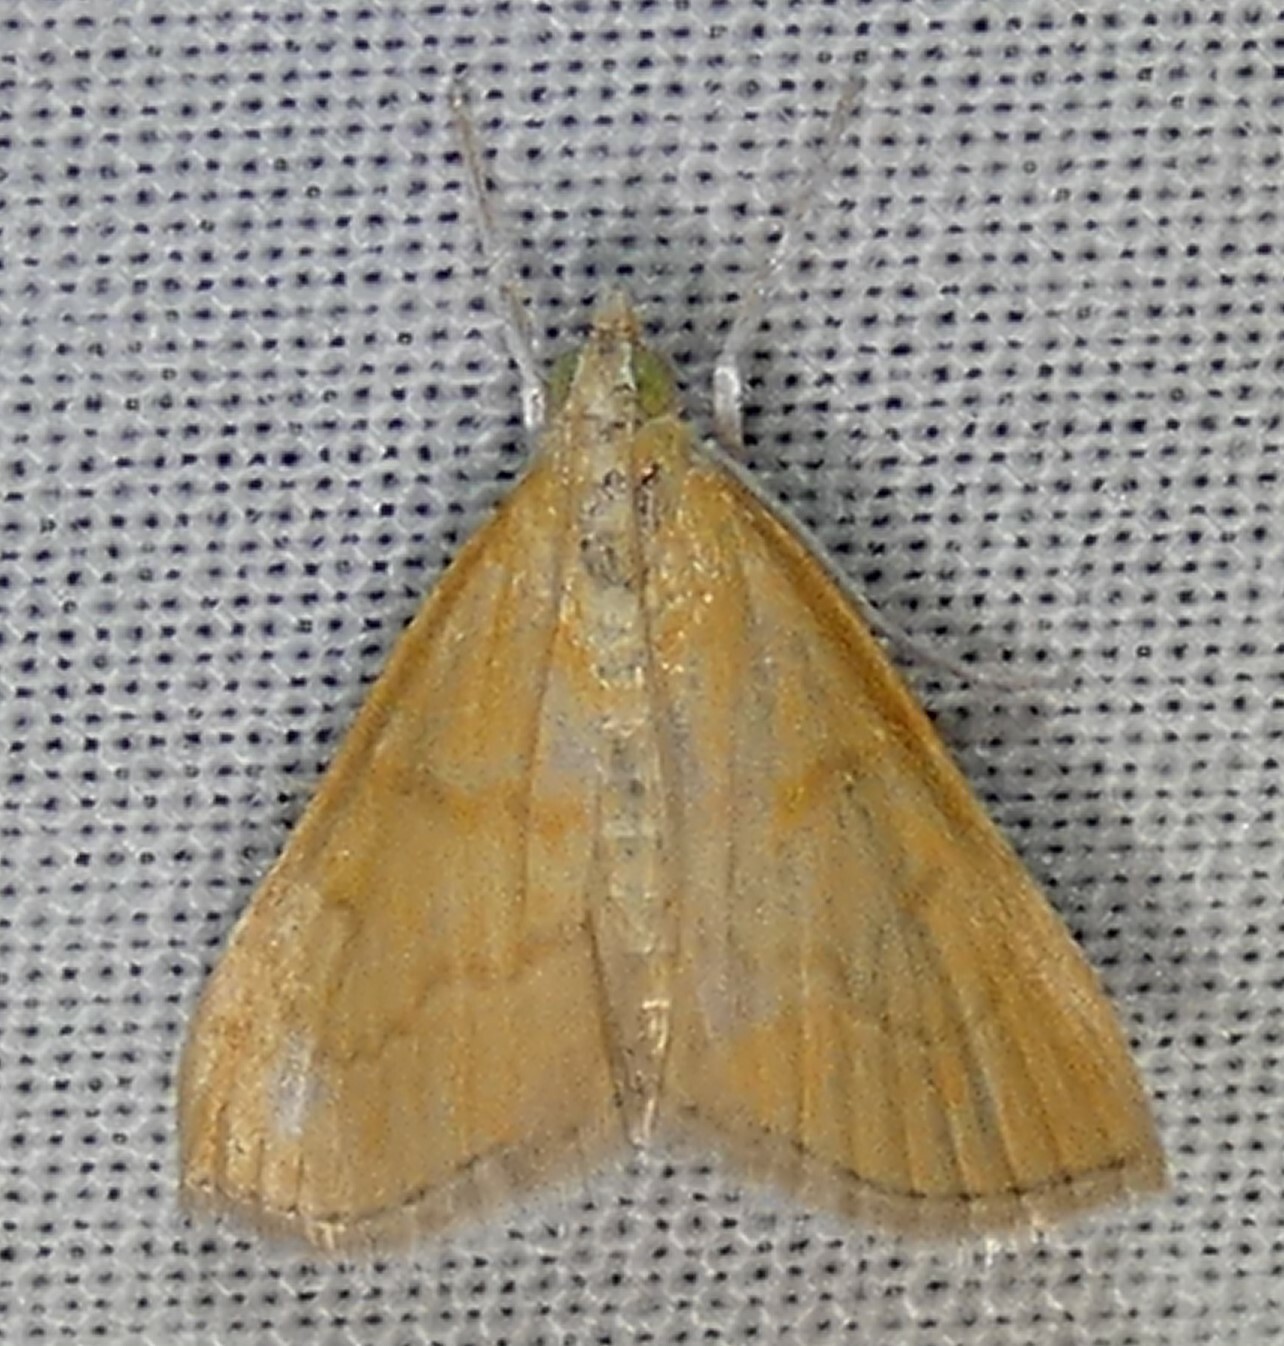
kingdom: Animalia
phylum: Arthropoda
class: Insecta
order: Lepidoptera
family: Crambidae
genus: Glaphyria
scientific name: Glaphyria invisalis
